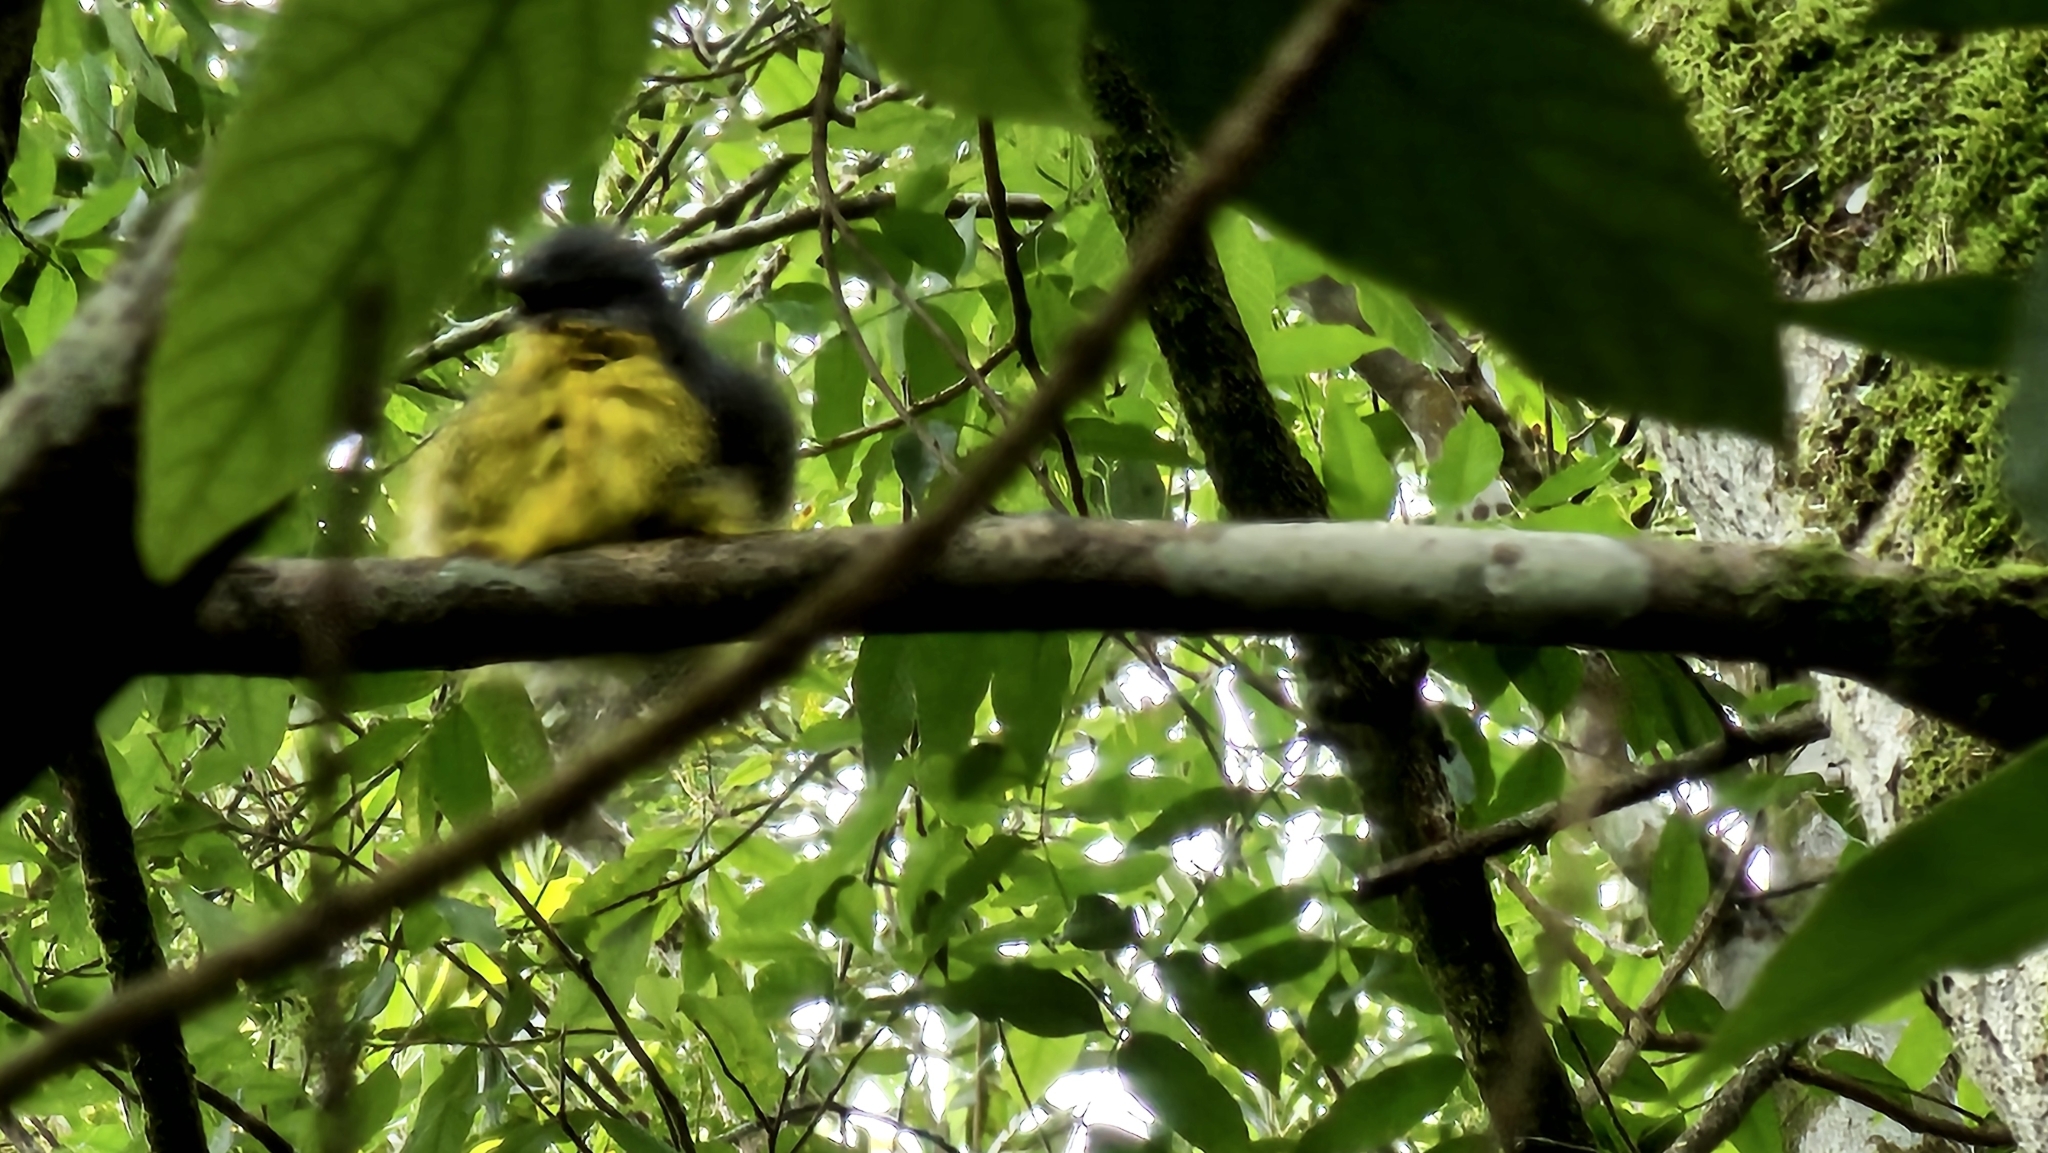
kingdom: Animalia
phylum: Chordata
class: Aves
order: Passeriformes
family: Petroicidae
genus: Eopsaltria
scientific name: Eopsaltria australis
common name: Eastern yellow robin
